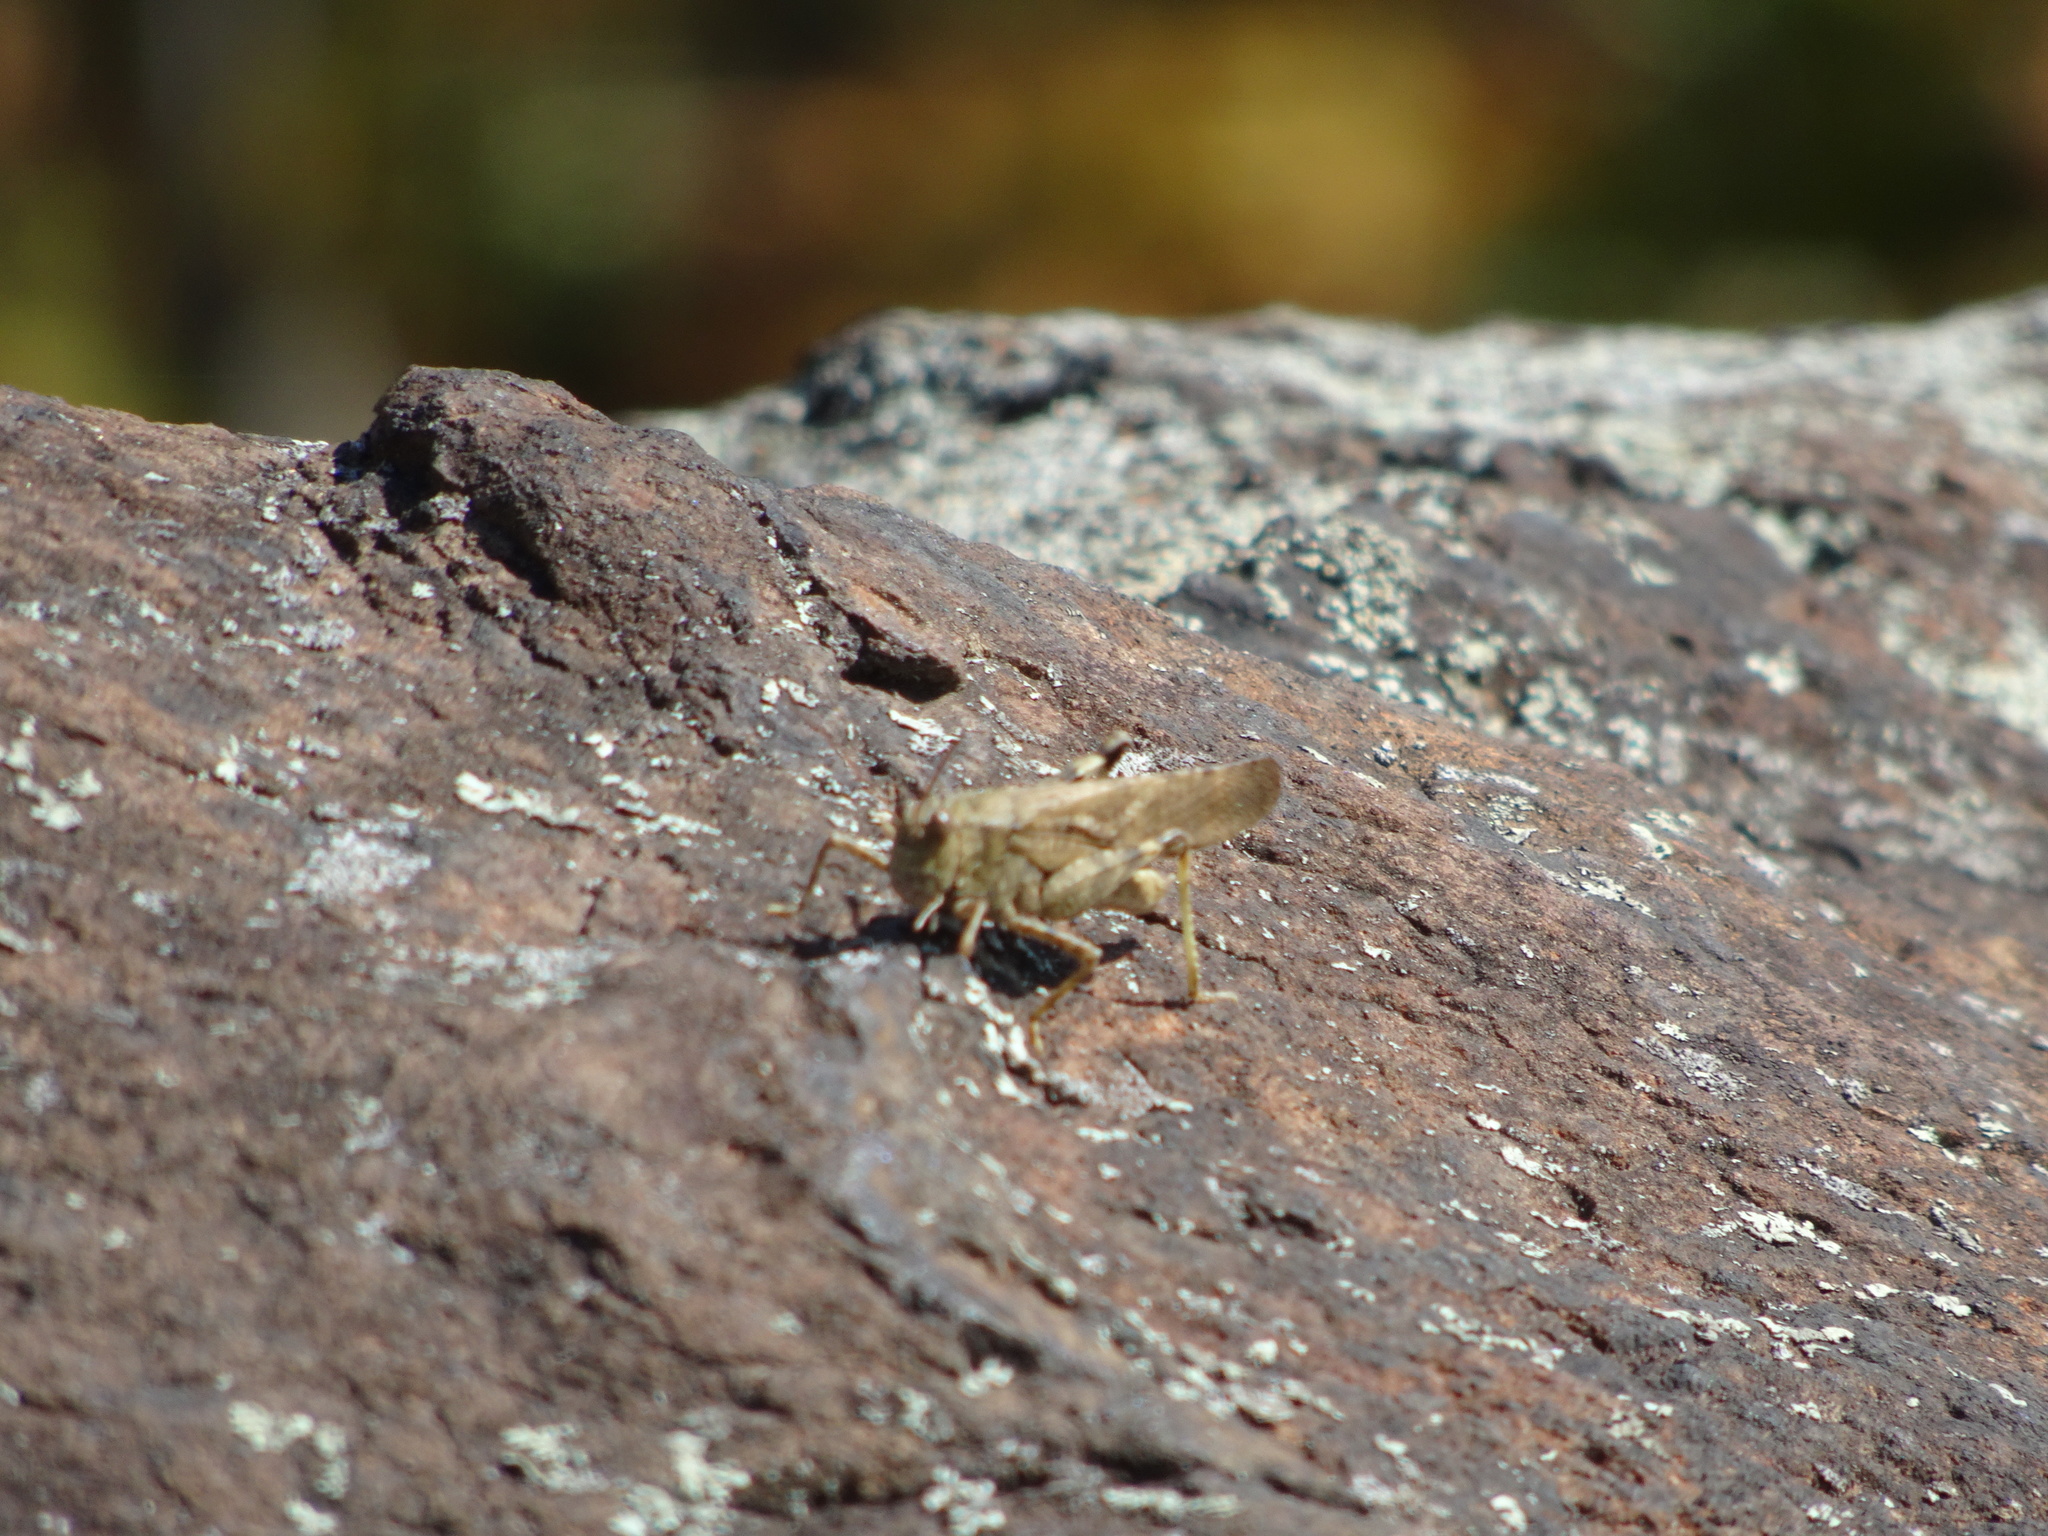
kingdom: Animalia
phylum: Arthropoda
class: Insecta
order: Orthoptera
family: Acrididae
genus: Dissosteira
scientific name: Dissosteira carolina
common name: Carolina grasshopper
